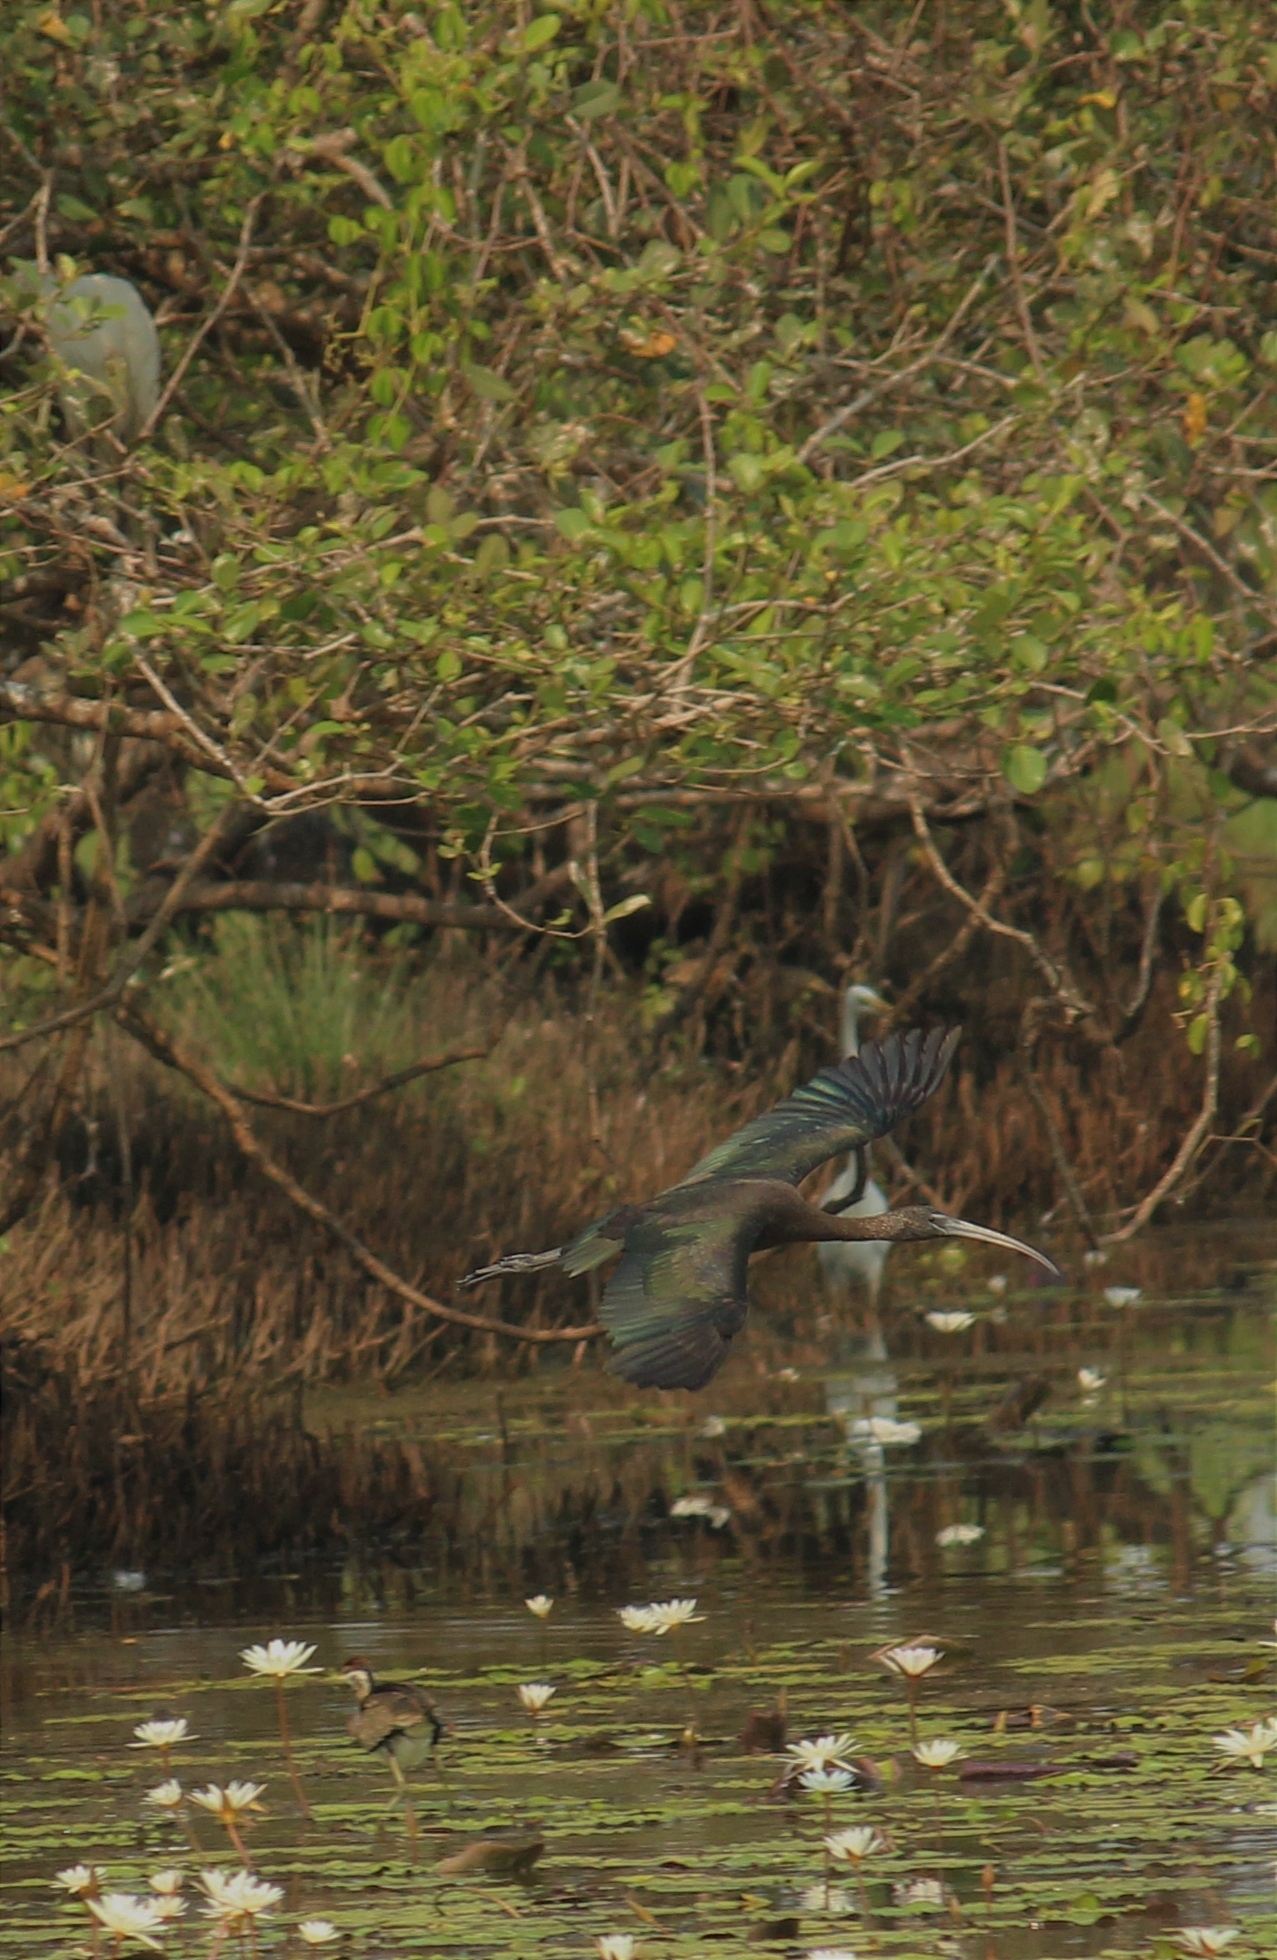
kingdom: Animalia
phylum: Chordata
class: Aves
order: Pelecaniformes
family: Threskiornithidae
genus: Plegadis
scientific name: Plegadis falcinellus
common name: Glossy ibis
